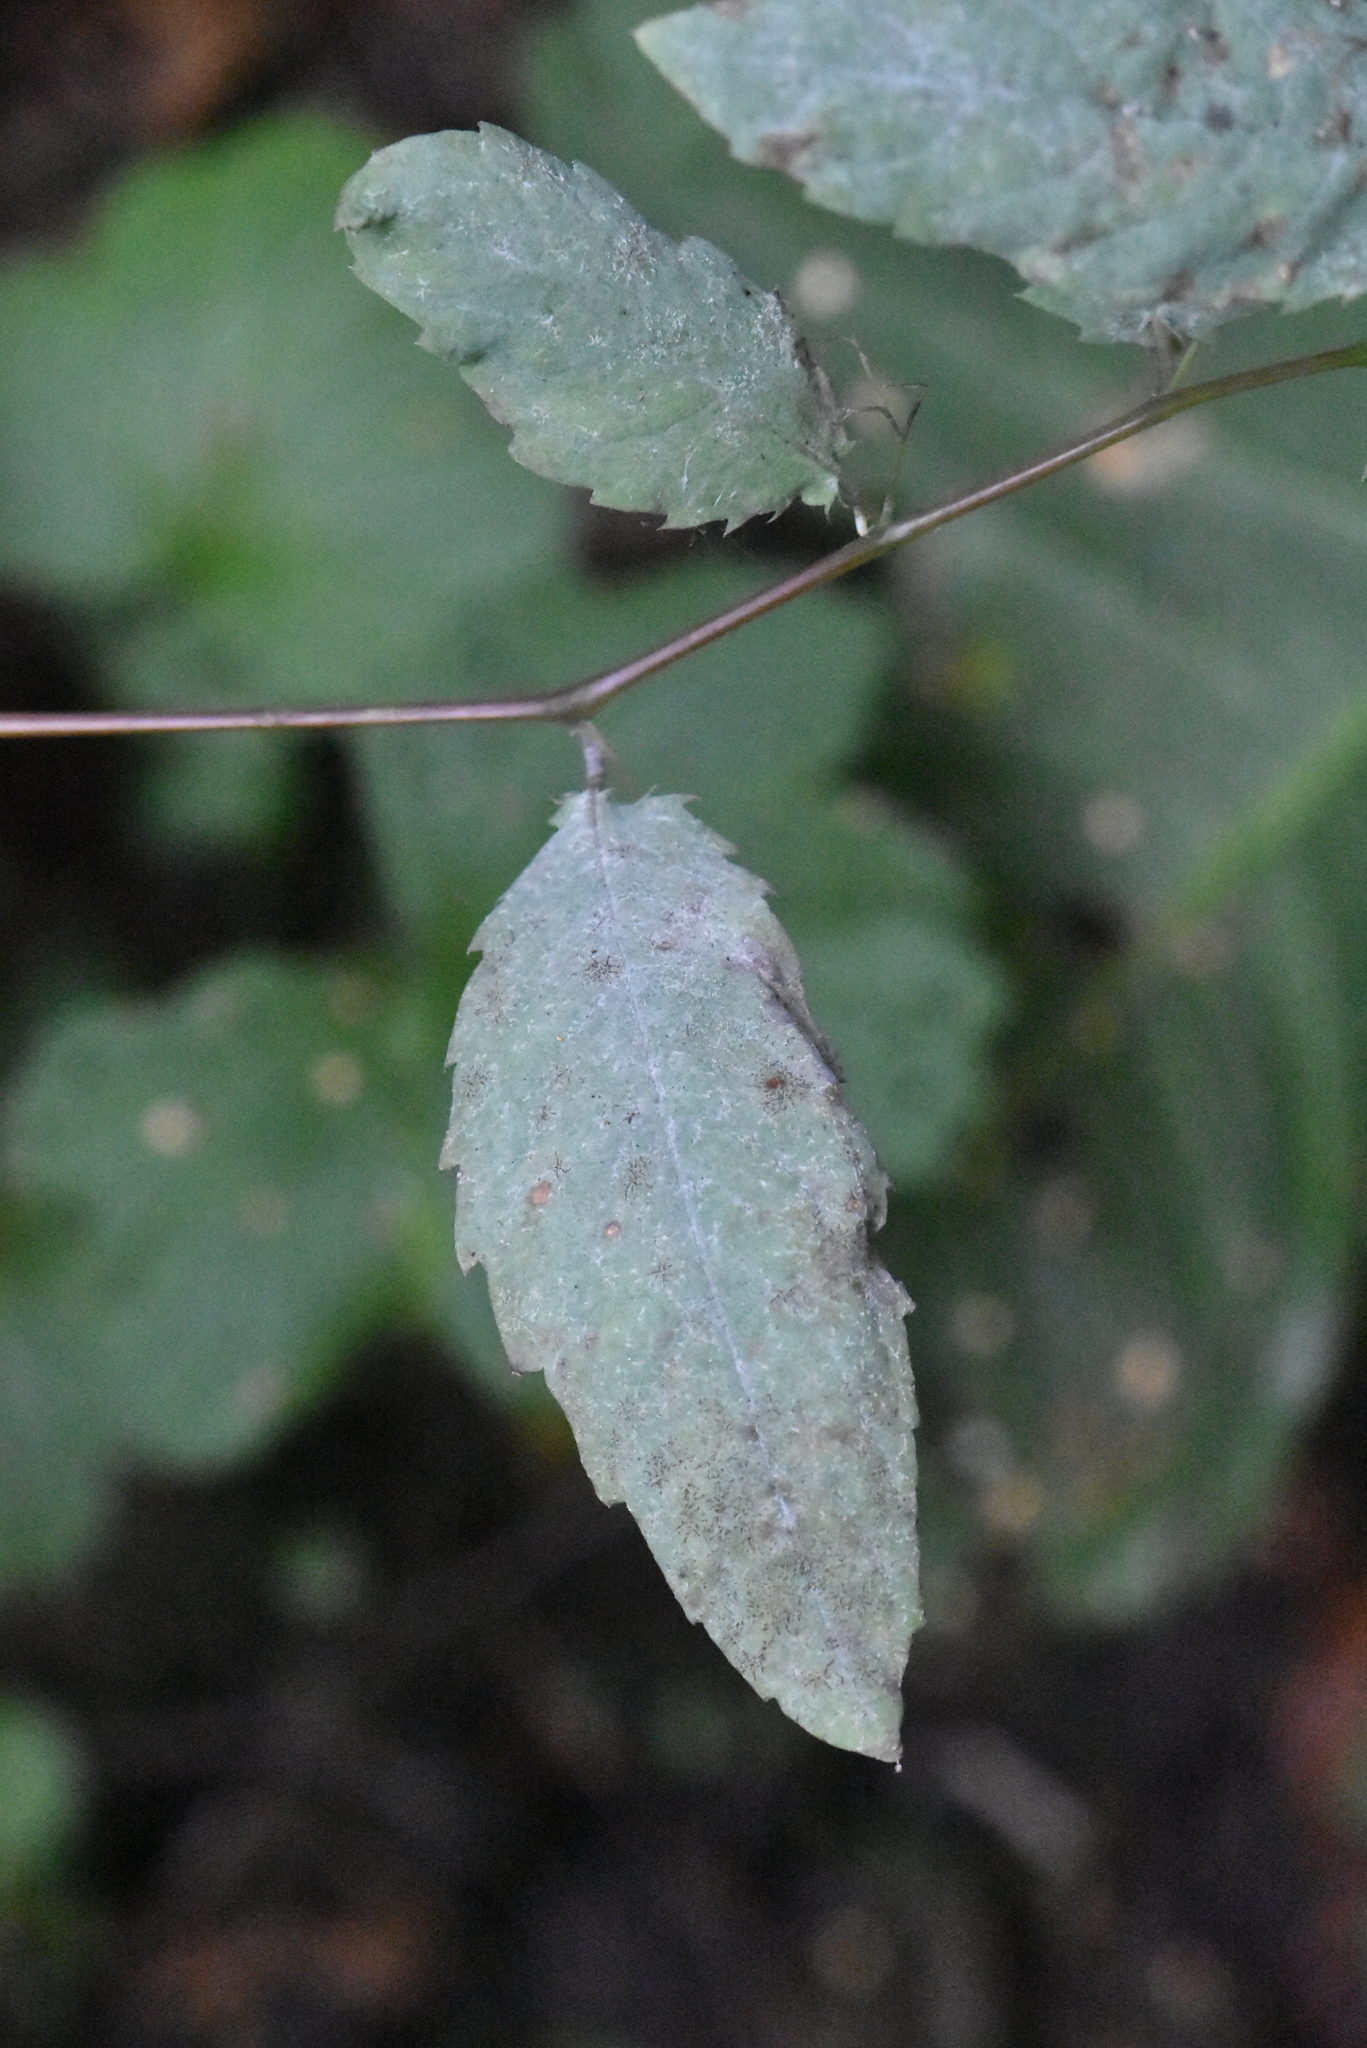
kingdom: Plantae
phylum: Tracheophyta
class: Magnoliopsida
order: Ericales
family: Balsaminaceae
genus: Impatiens
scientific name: Impatiens noli-tangere
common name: Touch-me-not balsam
